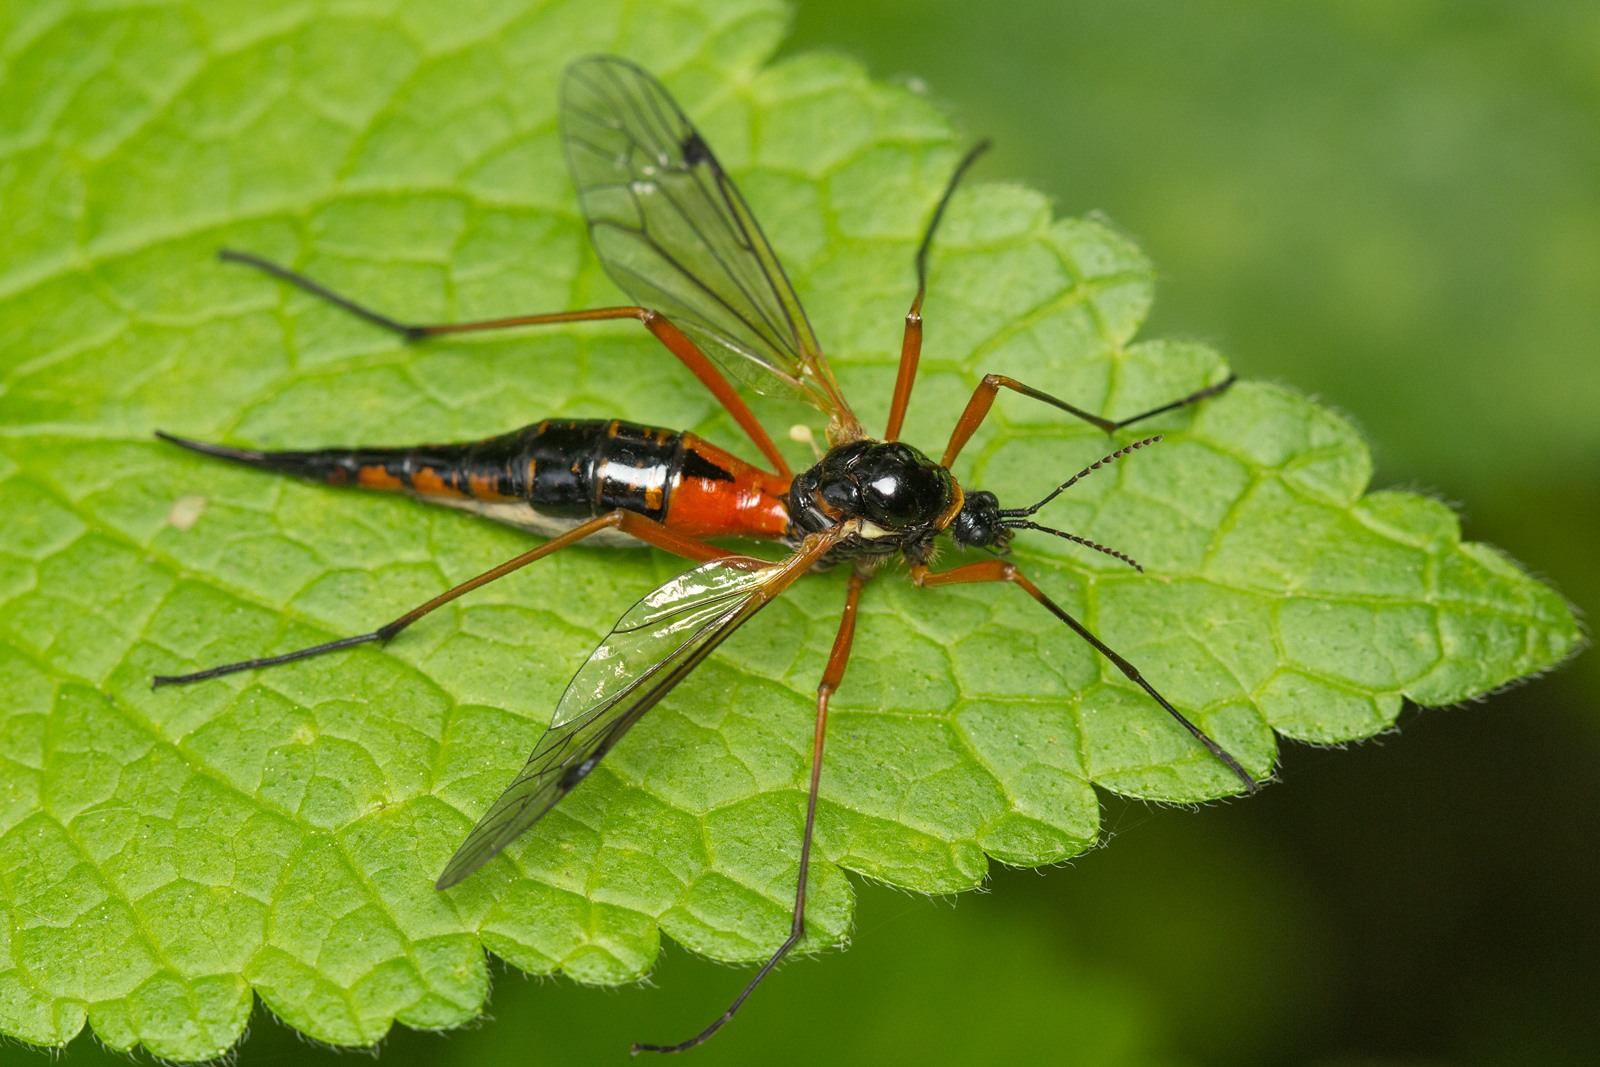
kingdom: Animalia
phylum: Arthropoda
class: Insecta
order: Diptera
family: Tipulidae
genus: Tanyptera
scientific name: Tanyptera atrata
